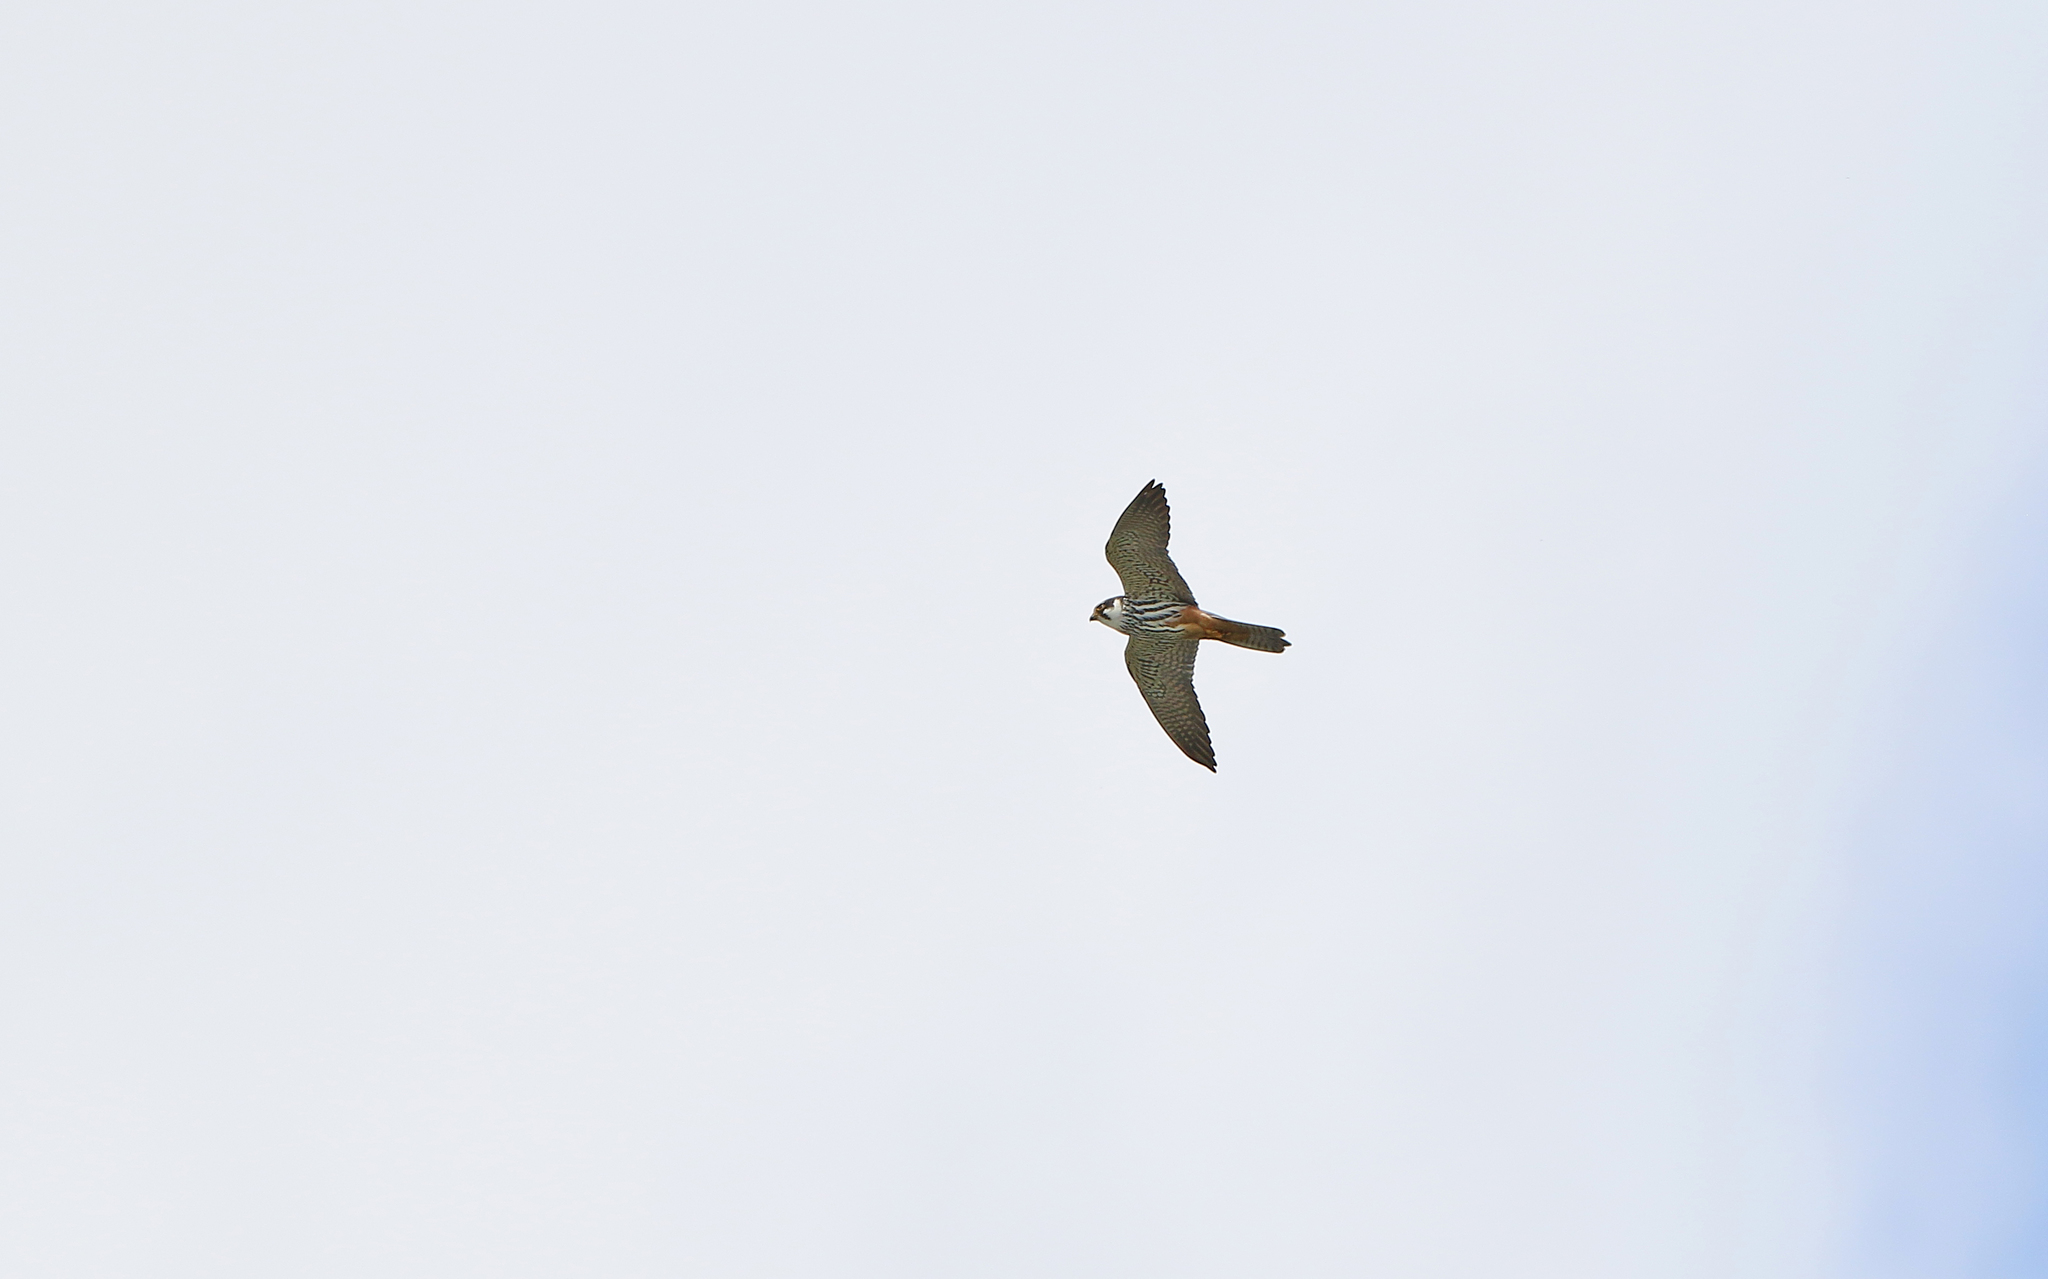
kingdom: Animalia
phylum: Chordata
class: Aves
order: Falconiformes
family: Falconidae
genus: Falco
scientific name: Falco subbuteo
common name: Eurasian hobby
